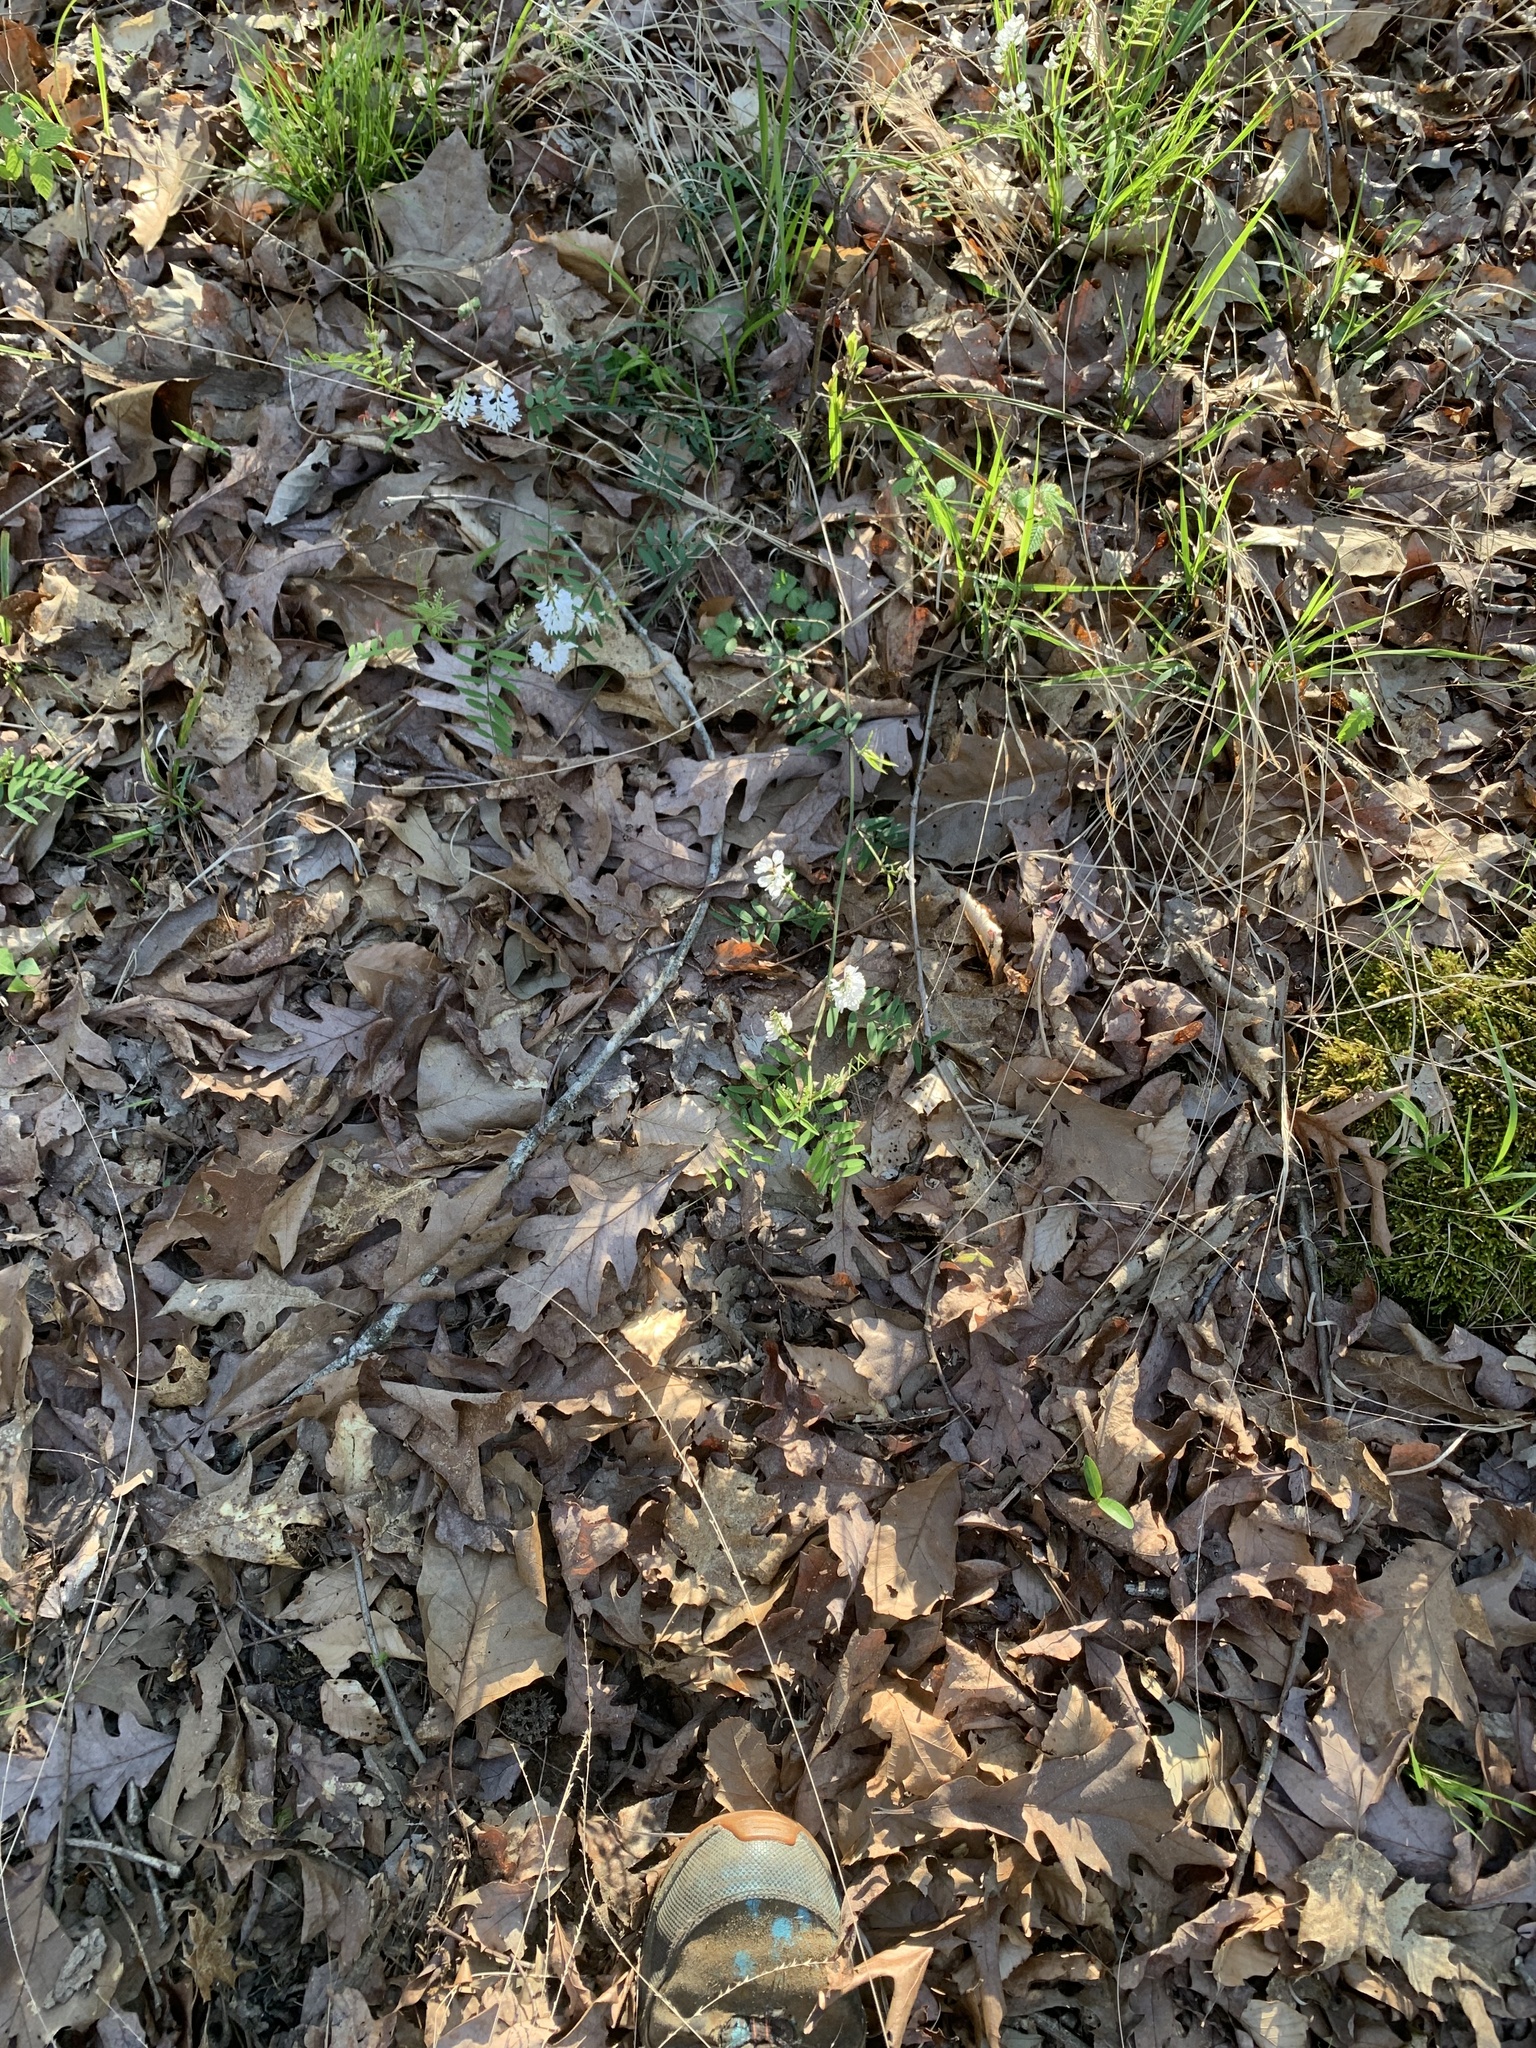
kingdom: Plantae
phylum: Tracheophyta
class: Magnoliopsida
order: Fabales
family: Fabaceae
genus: Vicia
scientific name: Vicia caroliniana
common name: Carolina vetch
